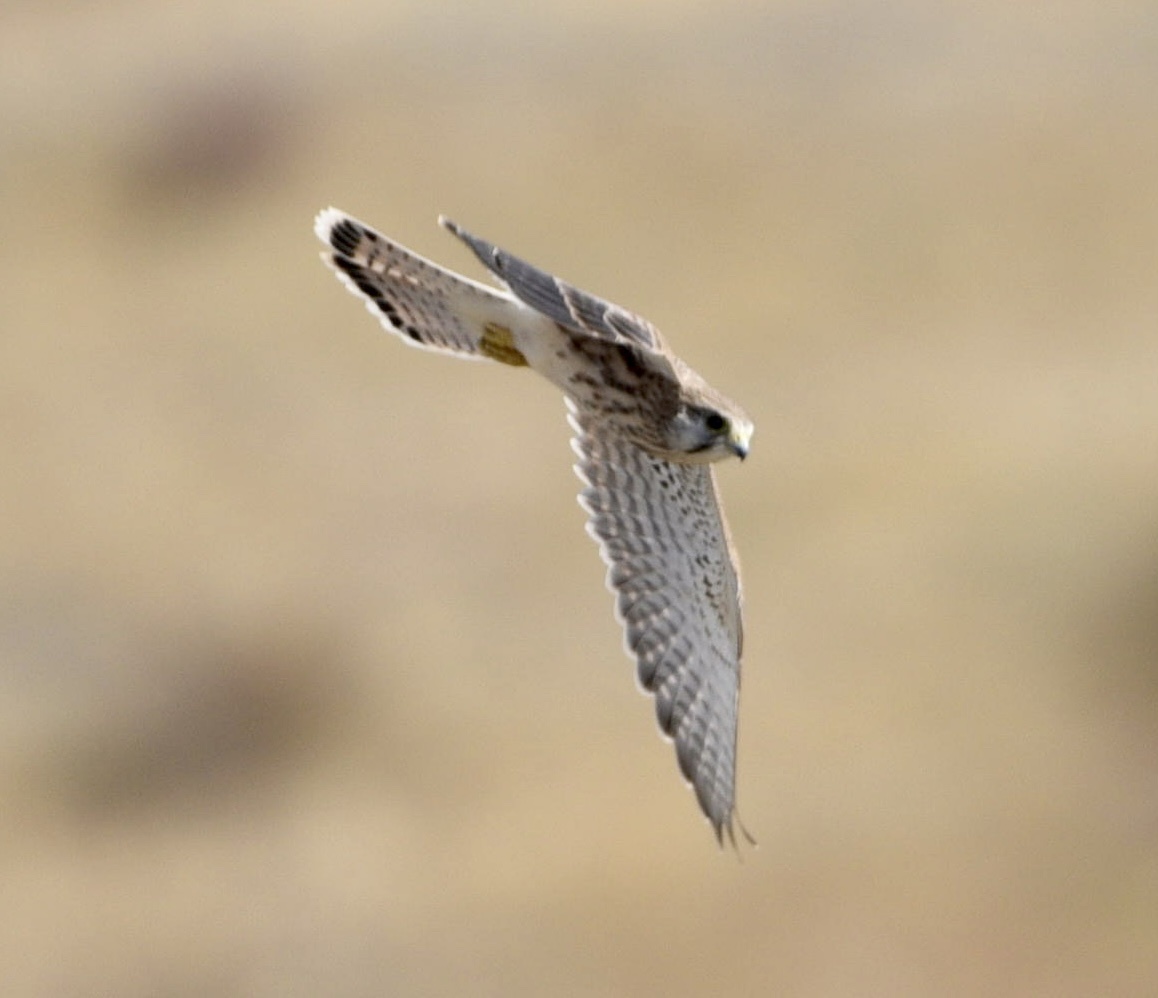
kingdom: Animalia
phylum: Chordata
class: Aves
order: Falconiformes
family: Falconidae
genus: Falco
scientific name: Falco tinnunculus
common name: Common kestrel
